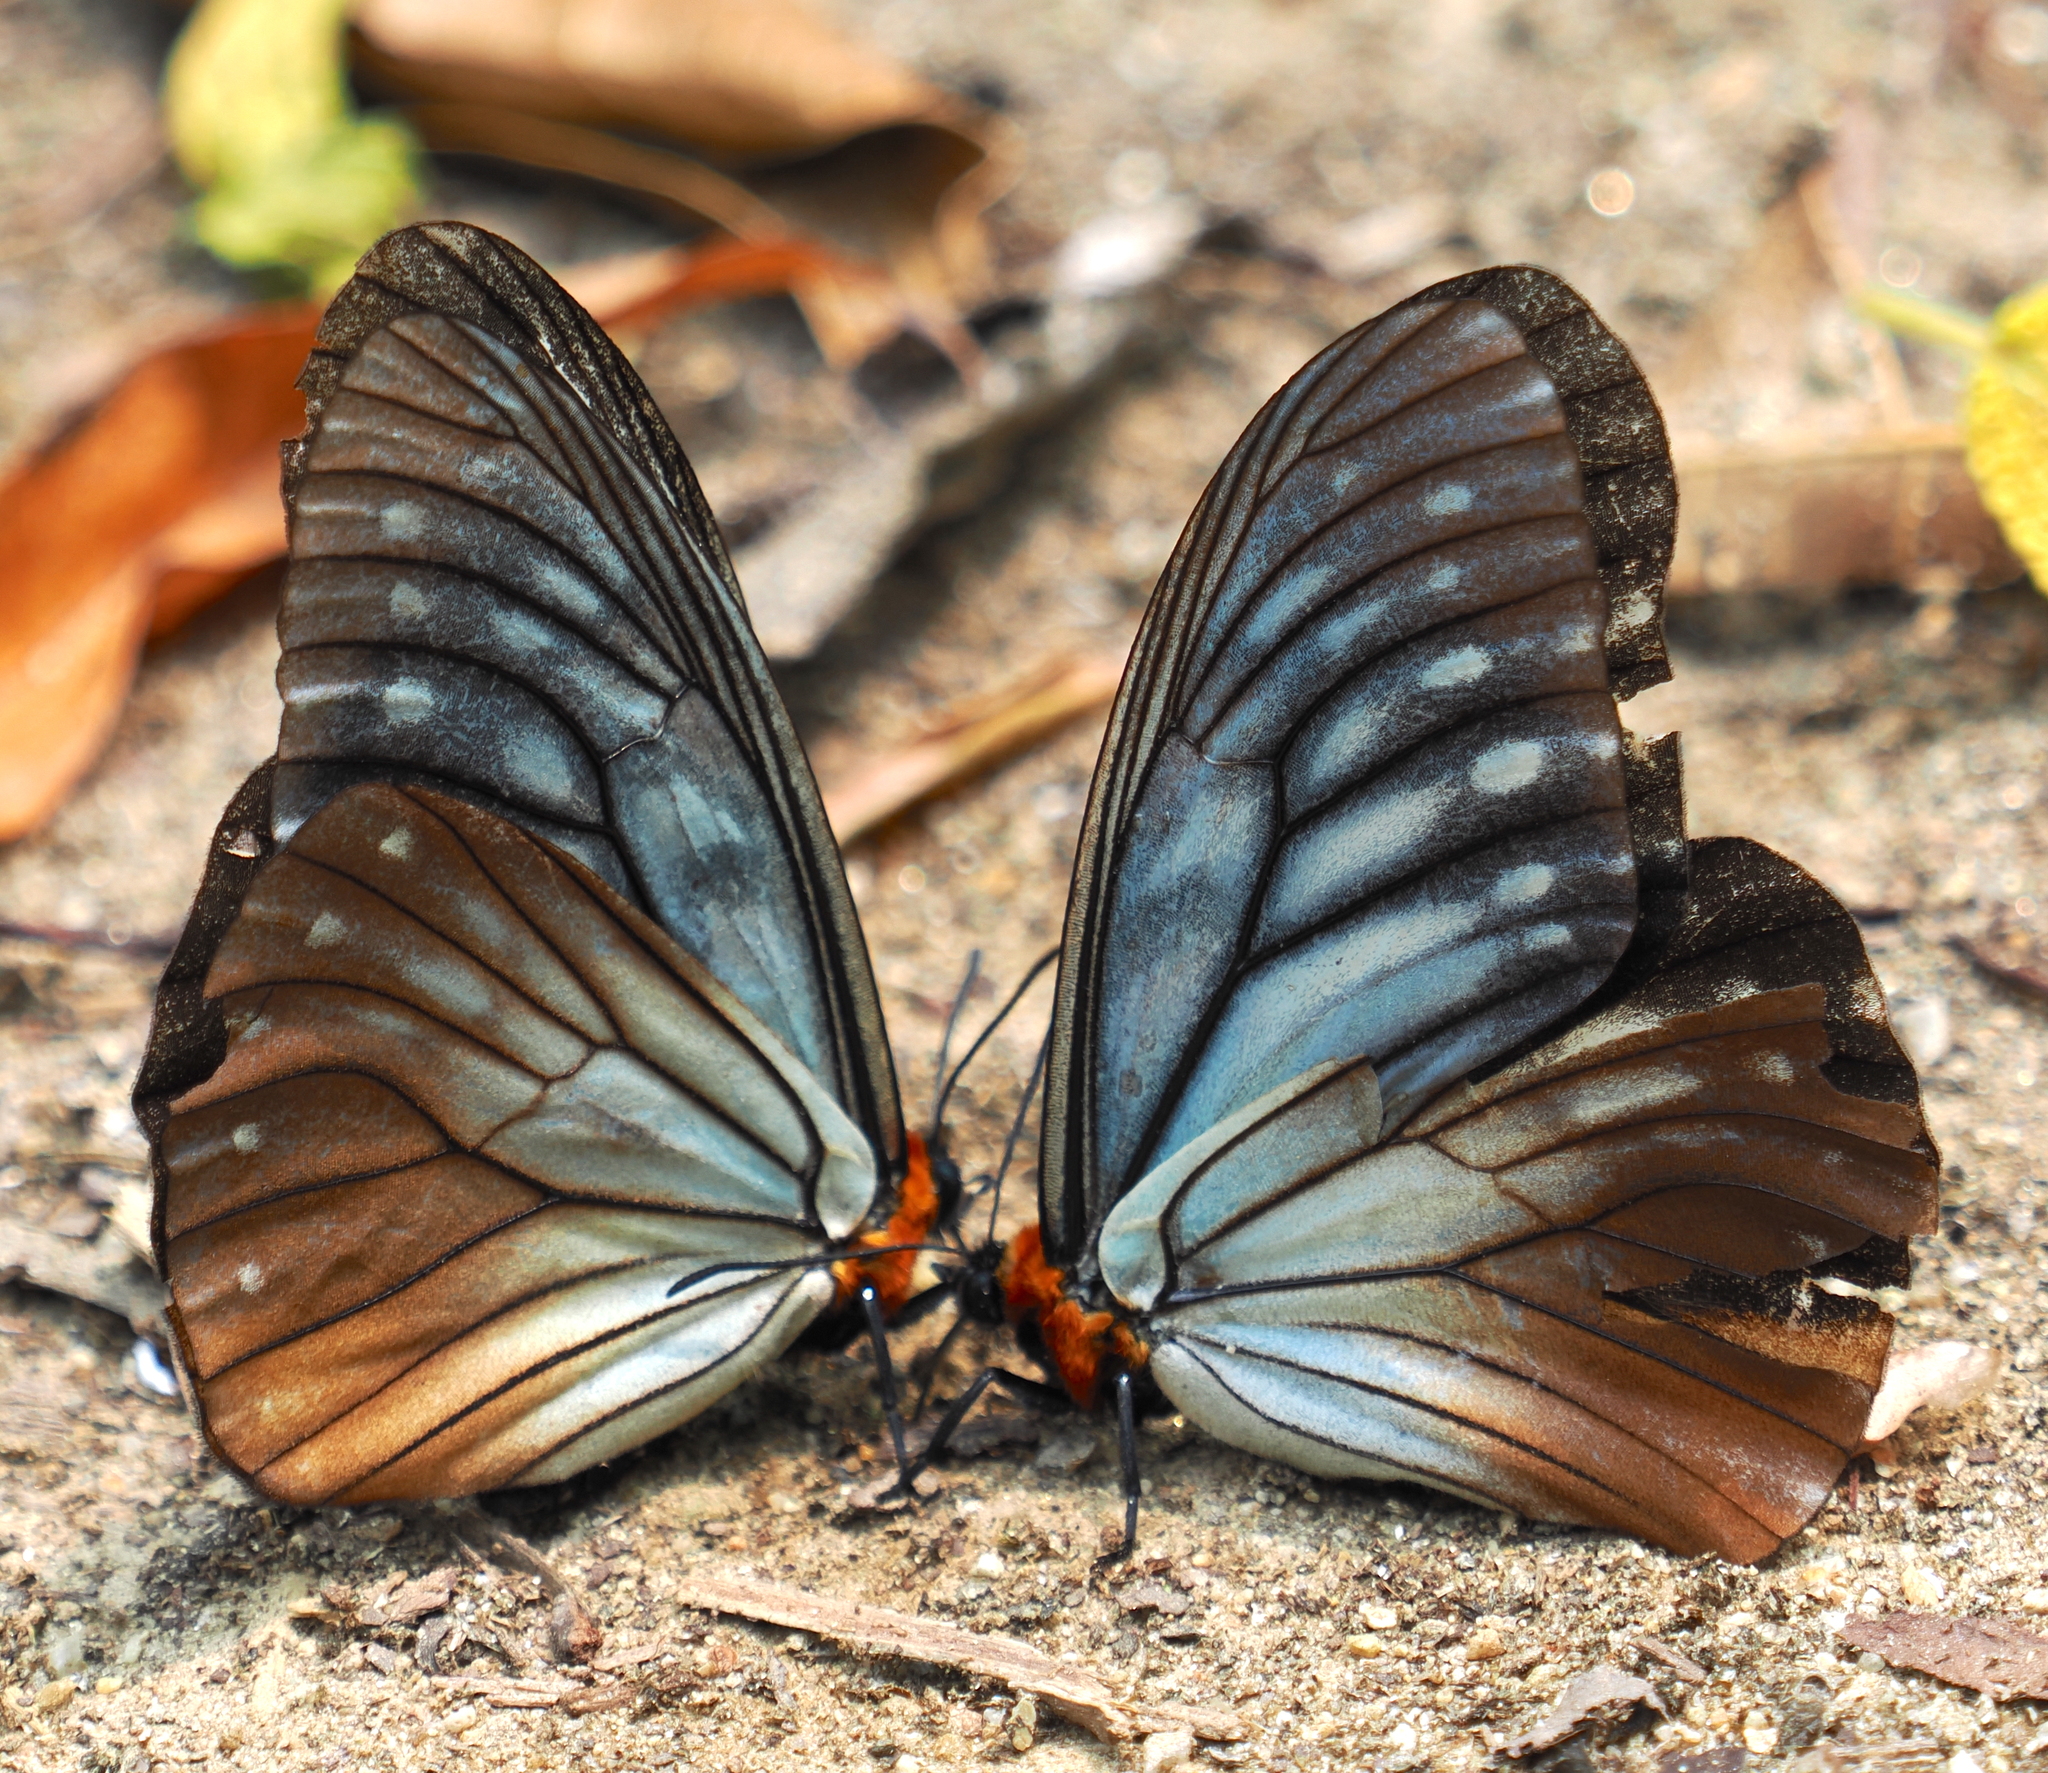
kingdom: Animalia
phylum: Arthropoda
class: Insecta
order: Lepidoptera
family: Nymphalidae
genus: Calinaga
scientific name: Calinaga sudassana
